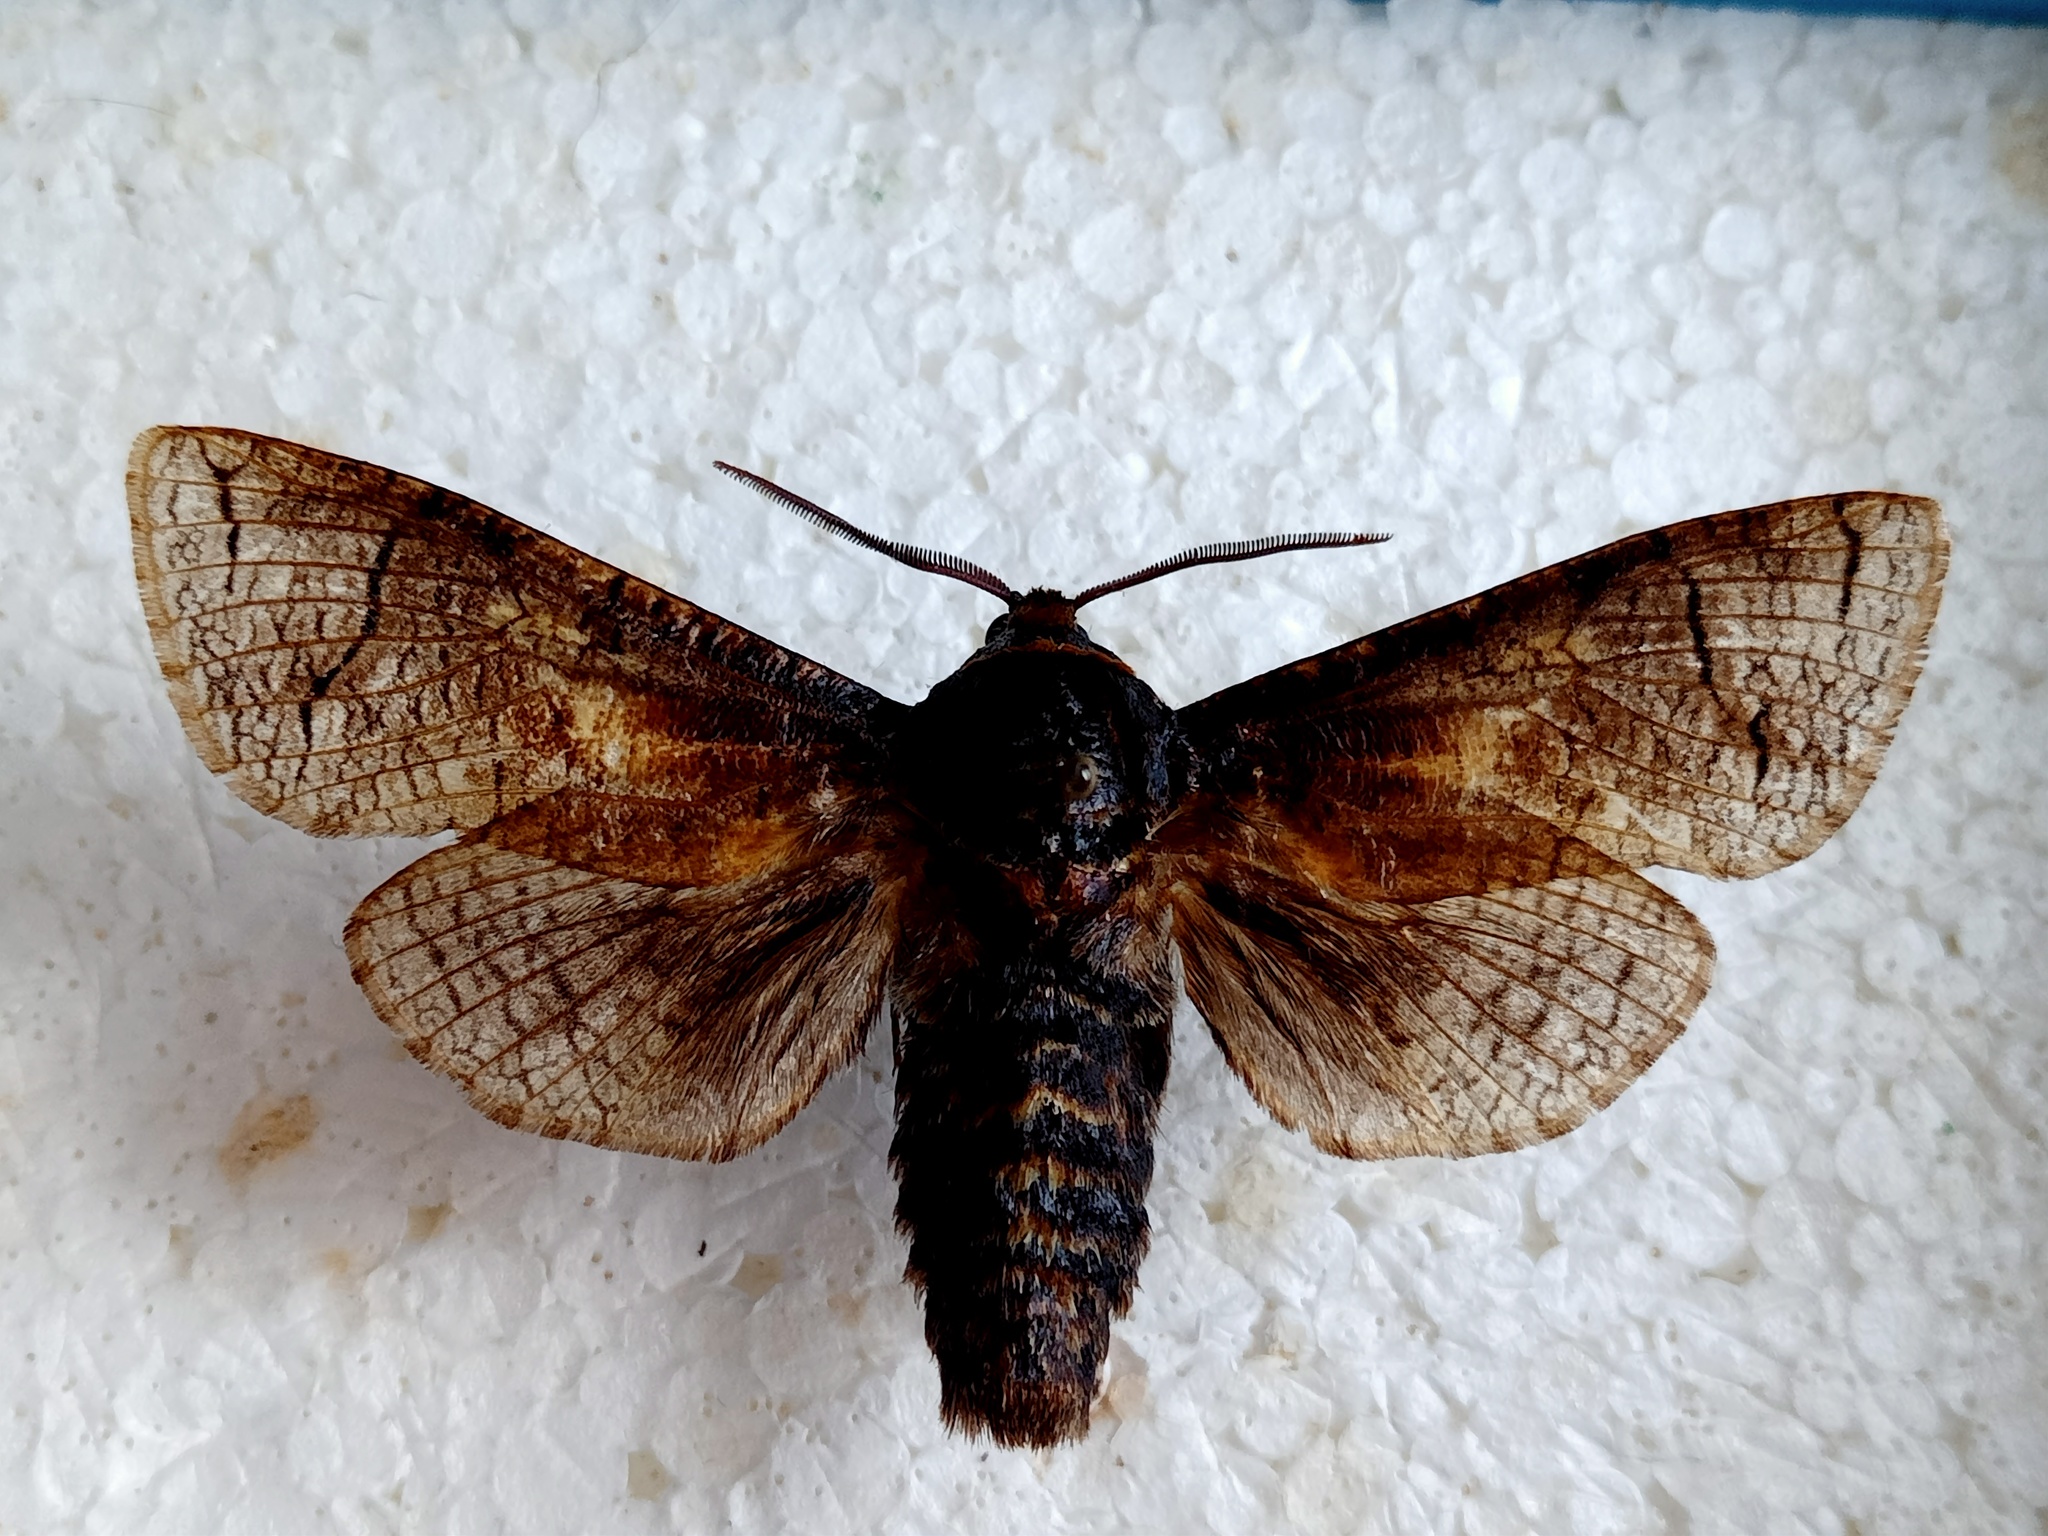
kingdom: Animalia
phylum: Arthropoda
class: Insecta
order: Lepidoptera
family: Cossidae
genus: Cossus
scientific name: Cossus cossus
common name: Goat moth
